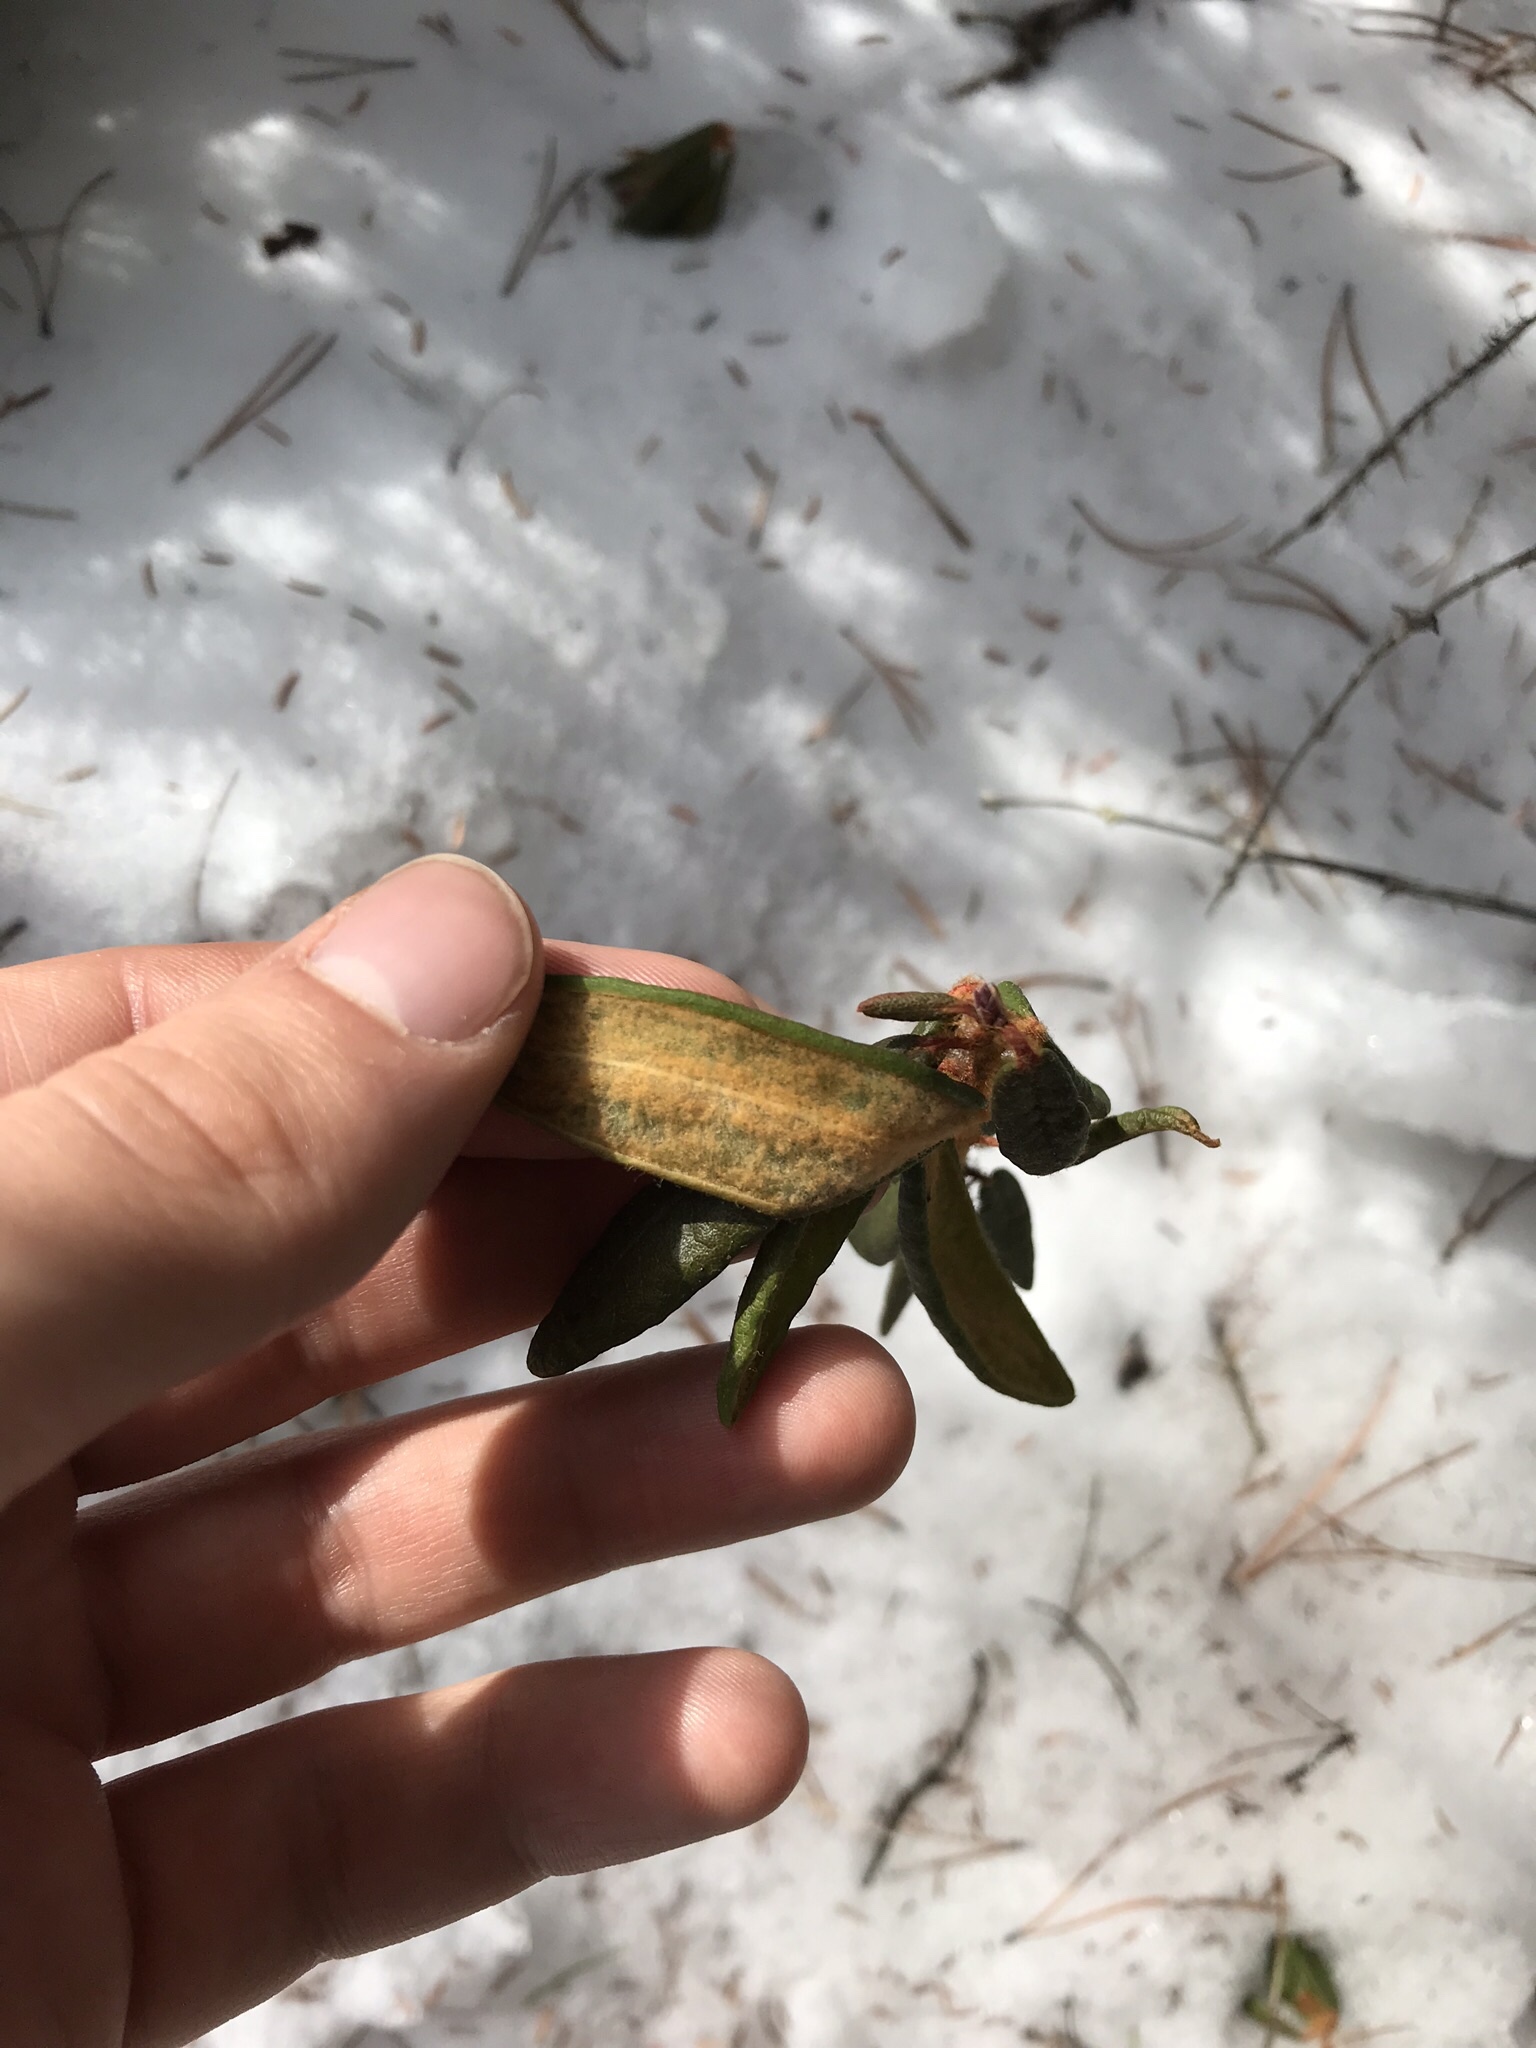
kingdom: Plantae
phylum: Tracheophyta
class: Magnoliopsida
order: Ericales
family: Ericaceae
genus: Rhododendron
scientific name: Rhododendron groenlandicum
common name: Bog labrador tea
